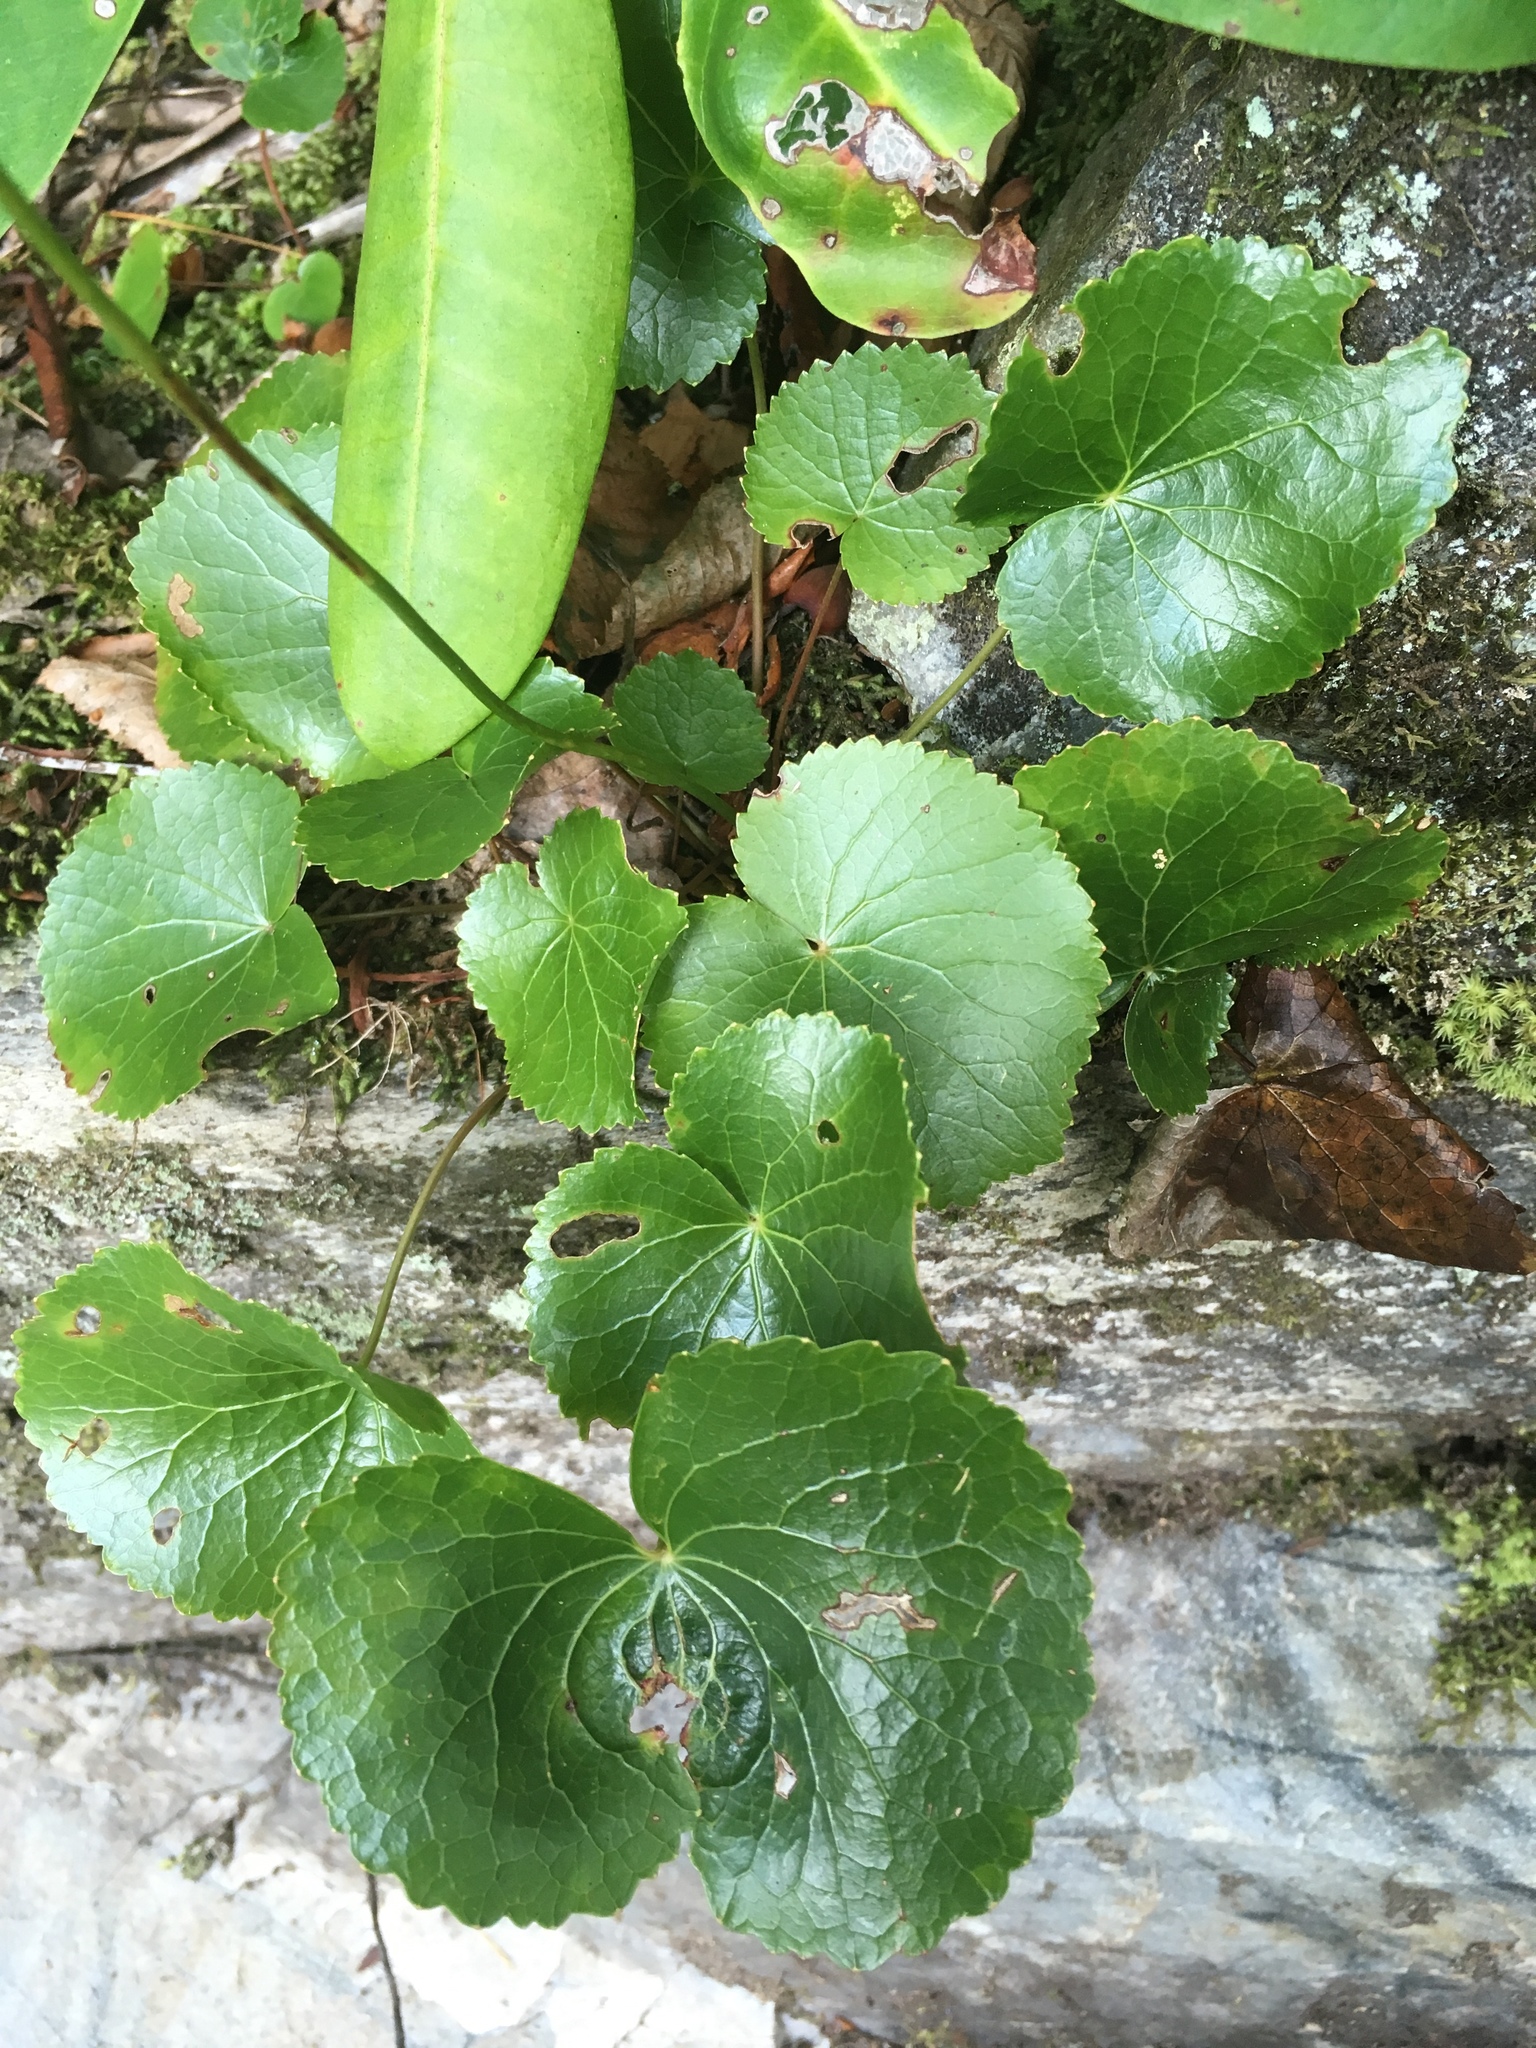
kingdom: Plantae
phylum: Tracheophyta
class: Magnoliopsida
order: Ericales
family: Diapensiaceae
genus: Galax
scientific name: Galax urceolata
